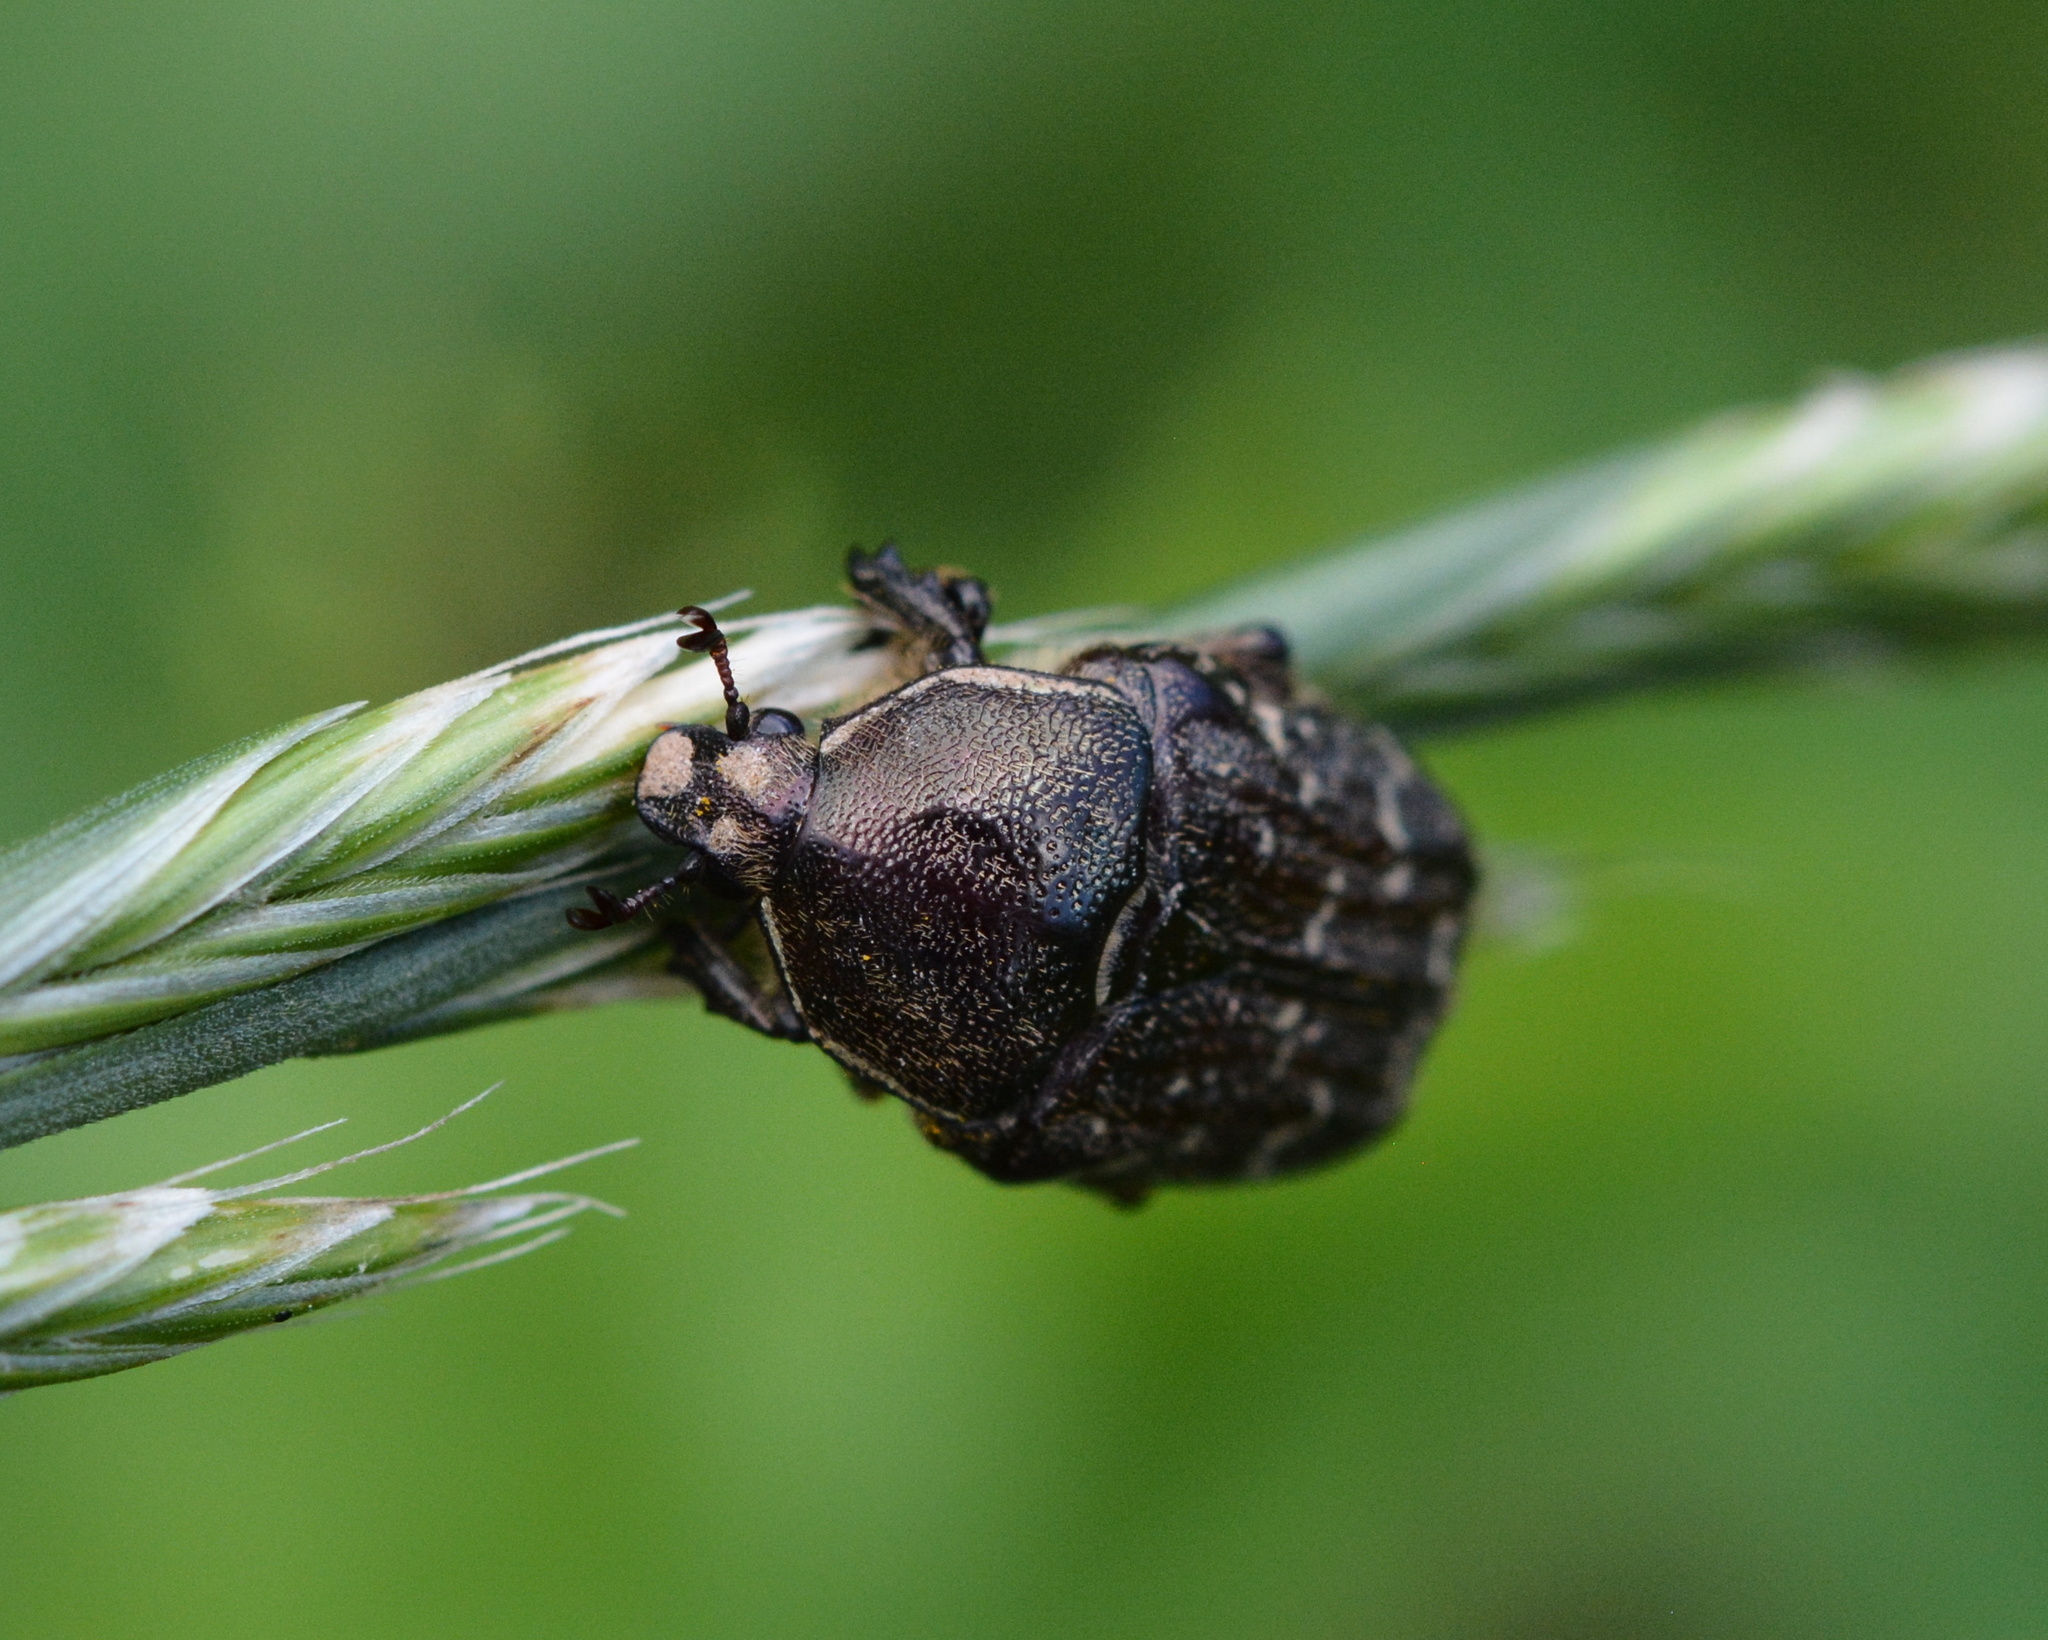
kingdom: Animalia
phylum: Arthropoda
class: Insecta
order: Coleoptera
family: Scarabaeidae
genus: Euphoria
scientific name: Euphoria sepulcralis
